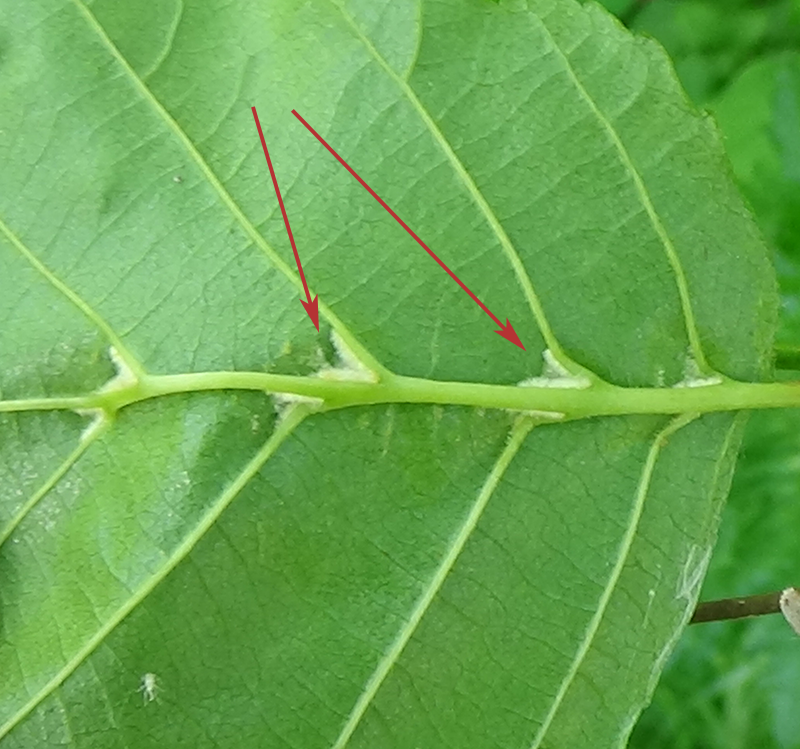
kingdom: Animalia
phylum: Arthropoda
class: Arachnida
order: Trombidiformes
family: Eriophyidae
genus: Eriophyes
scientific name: Eriophyes inangulis
